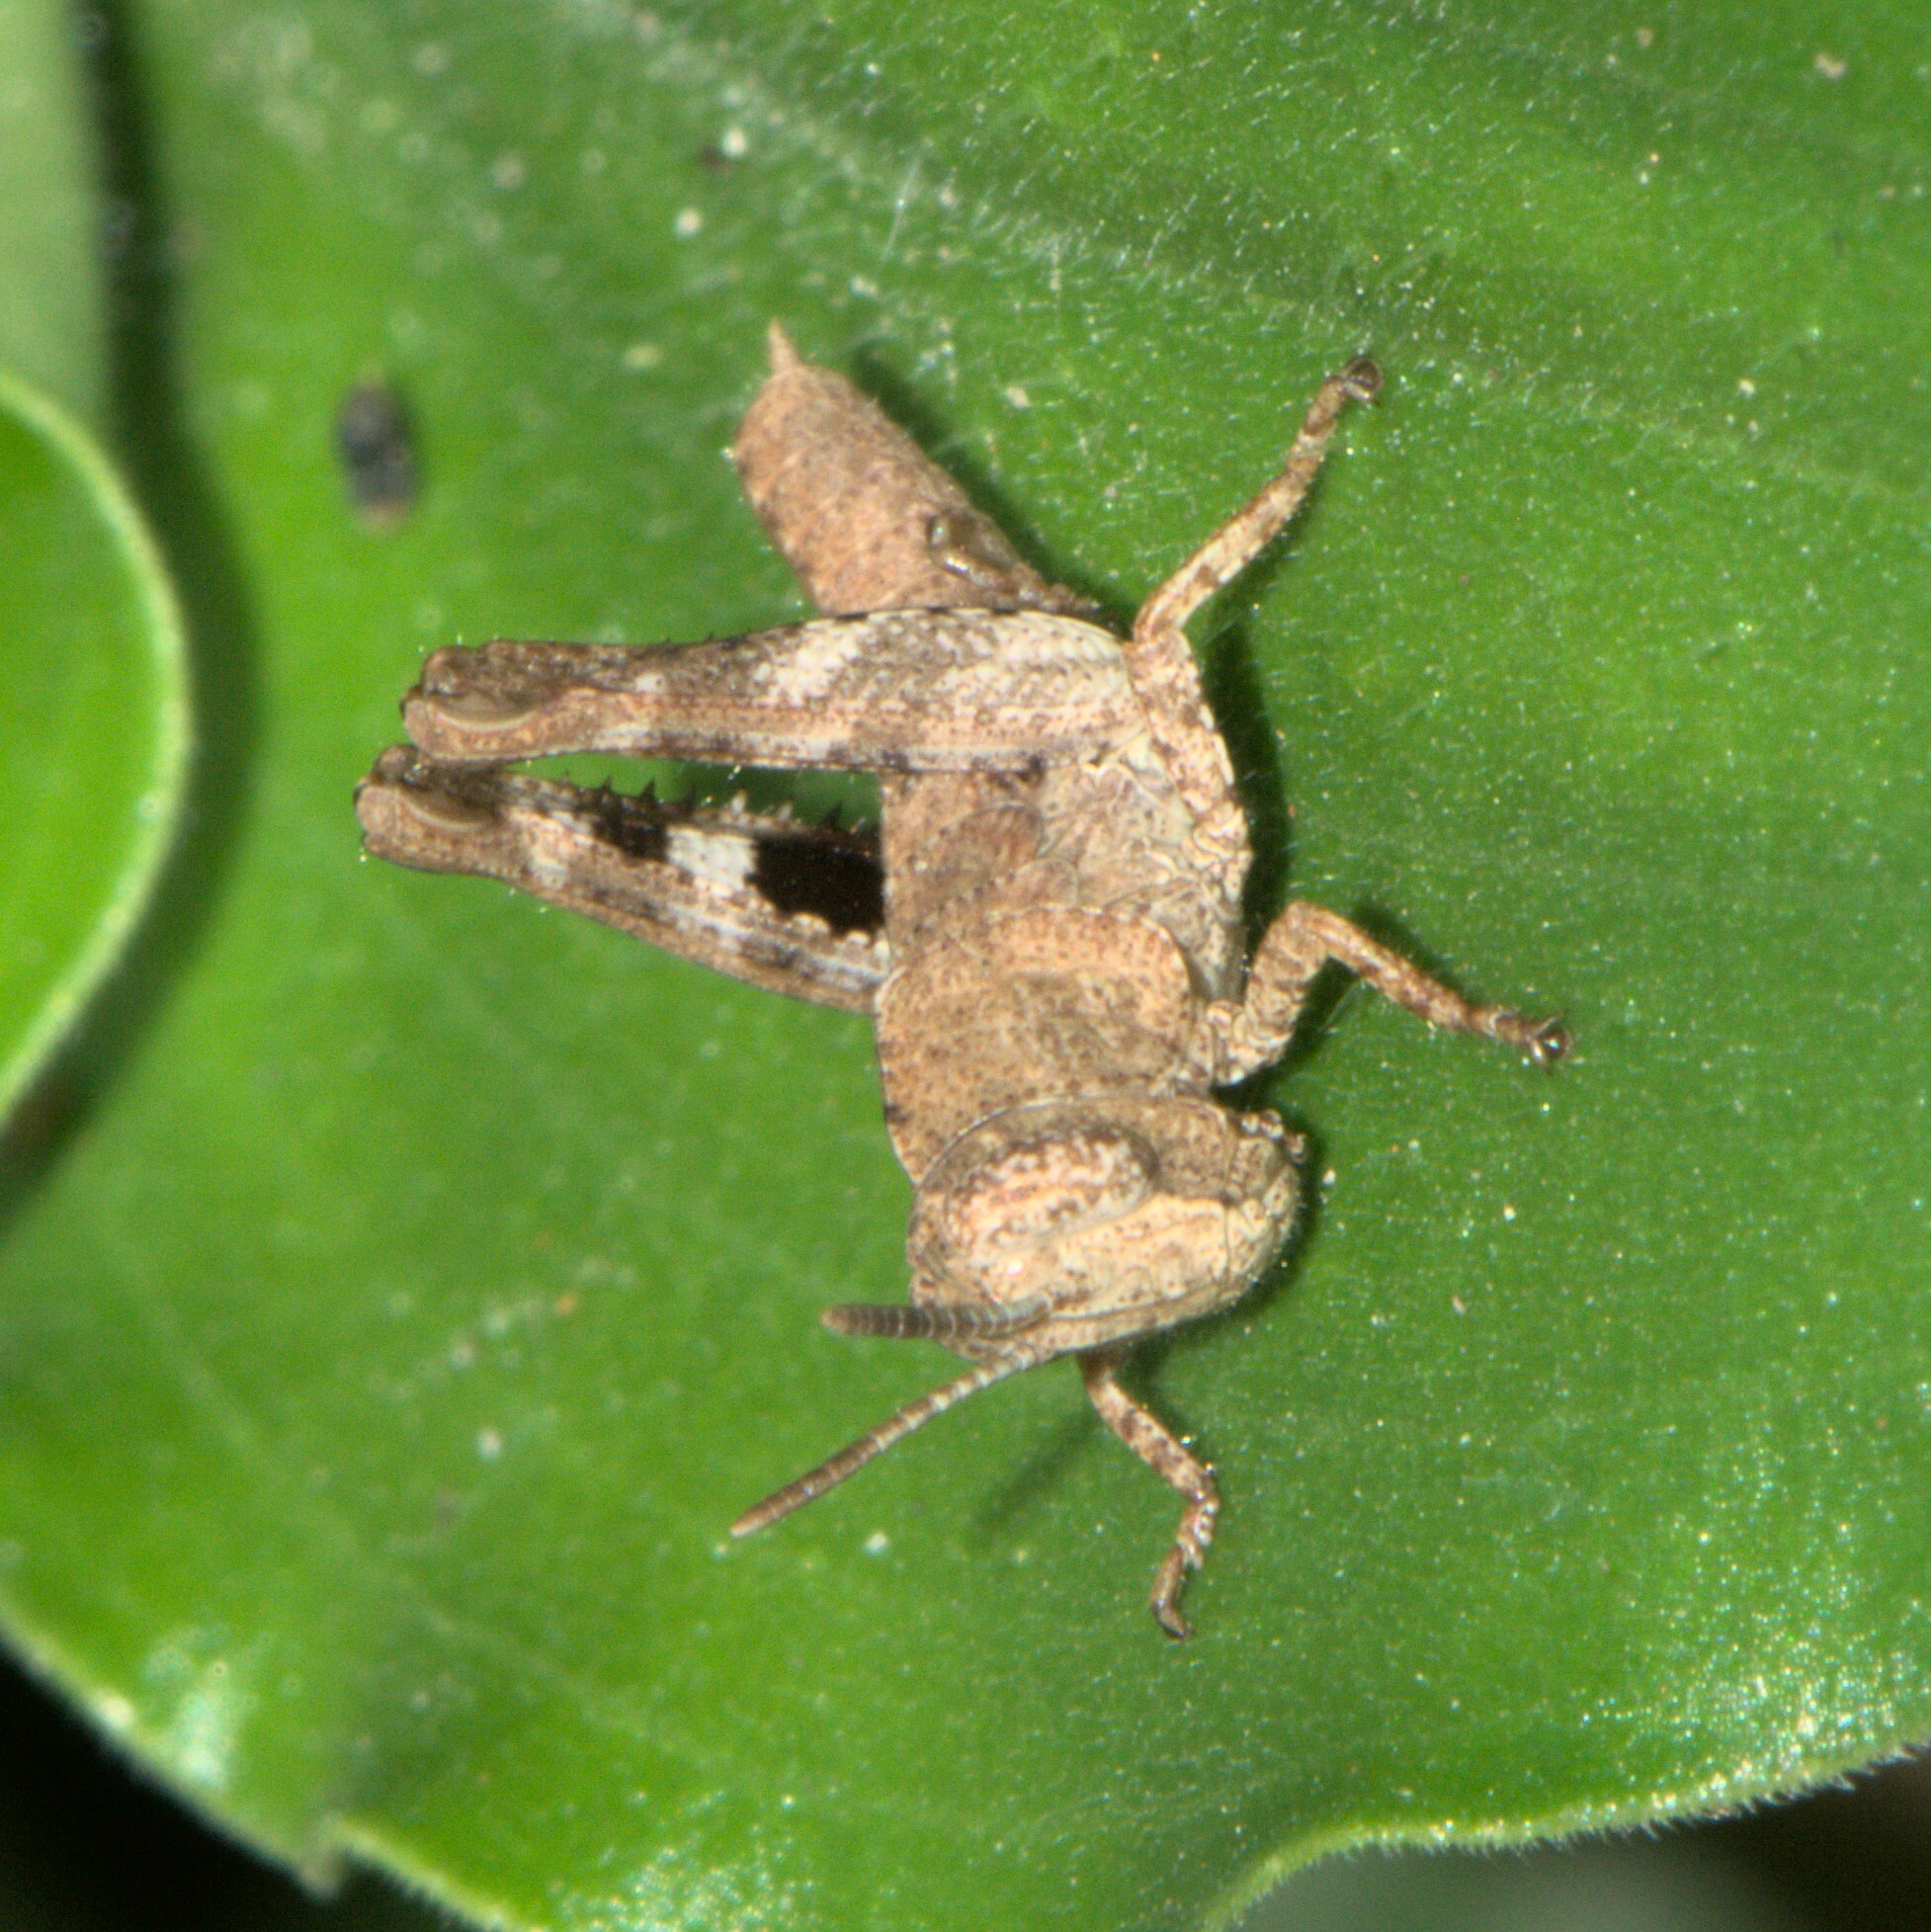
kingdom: Animalia
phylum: Arthropoda
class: Insecta
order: Orthoptera
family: Acrididae
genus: Heteracris
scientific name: Heteracris pulchra
